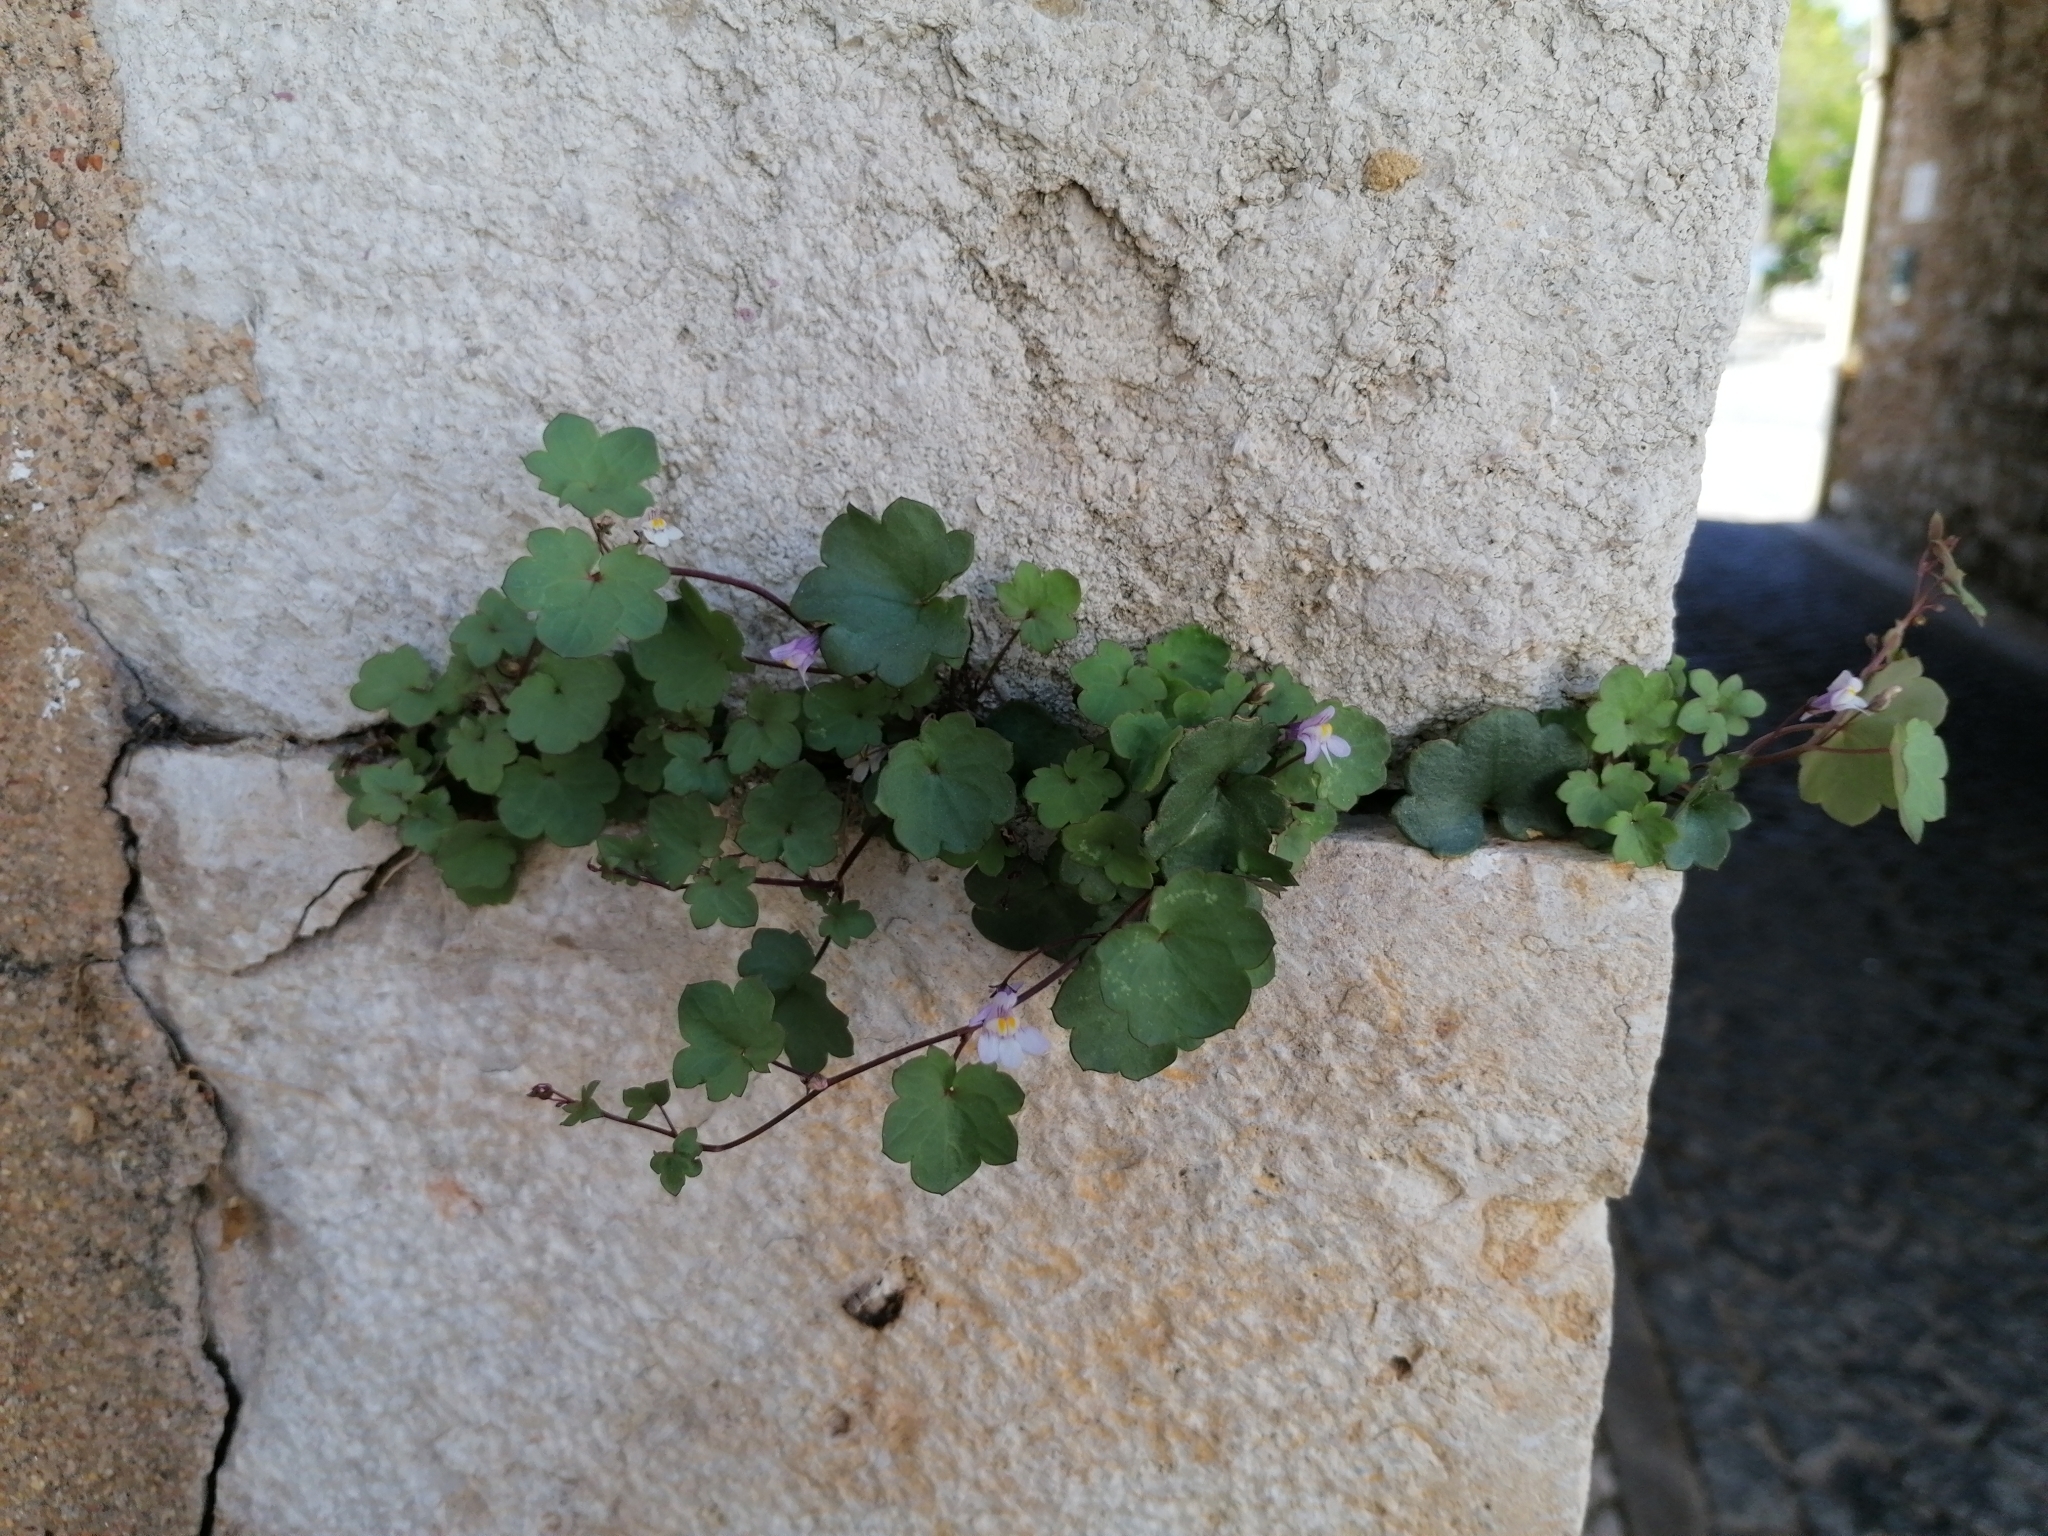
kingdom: Plantae
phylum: Tracheophyta
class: Magnoliopsida
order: Lamiales
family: Plantaginaceae
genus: Cymbalaria
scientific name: Cymbalaria muralis
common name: Ivy-leaved toadflax
